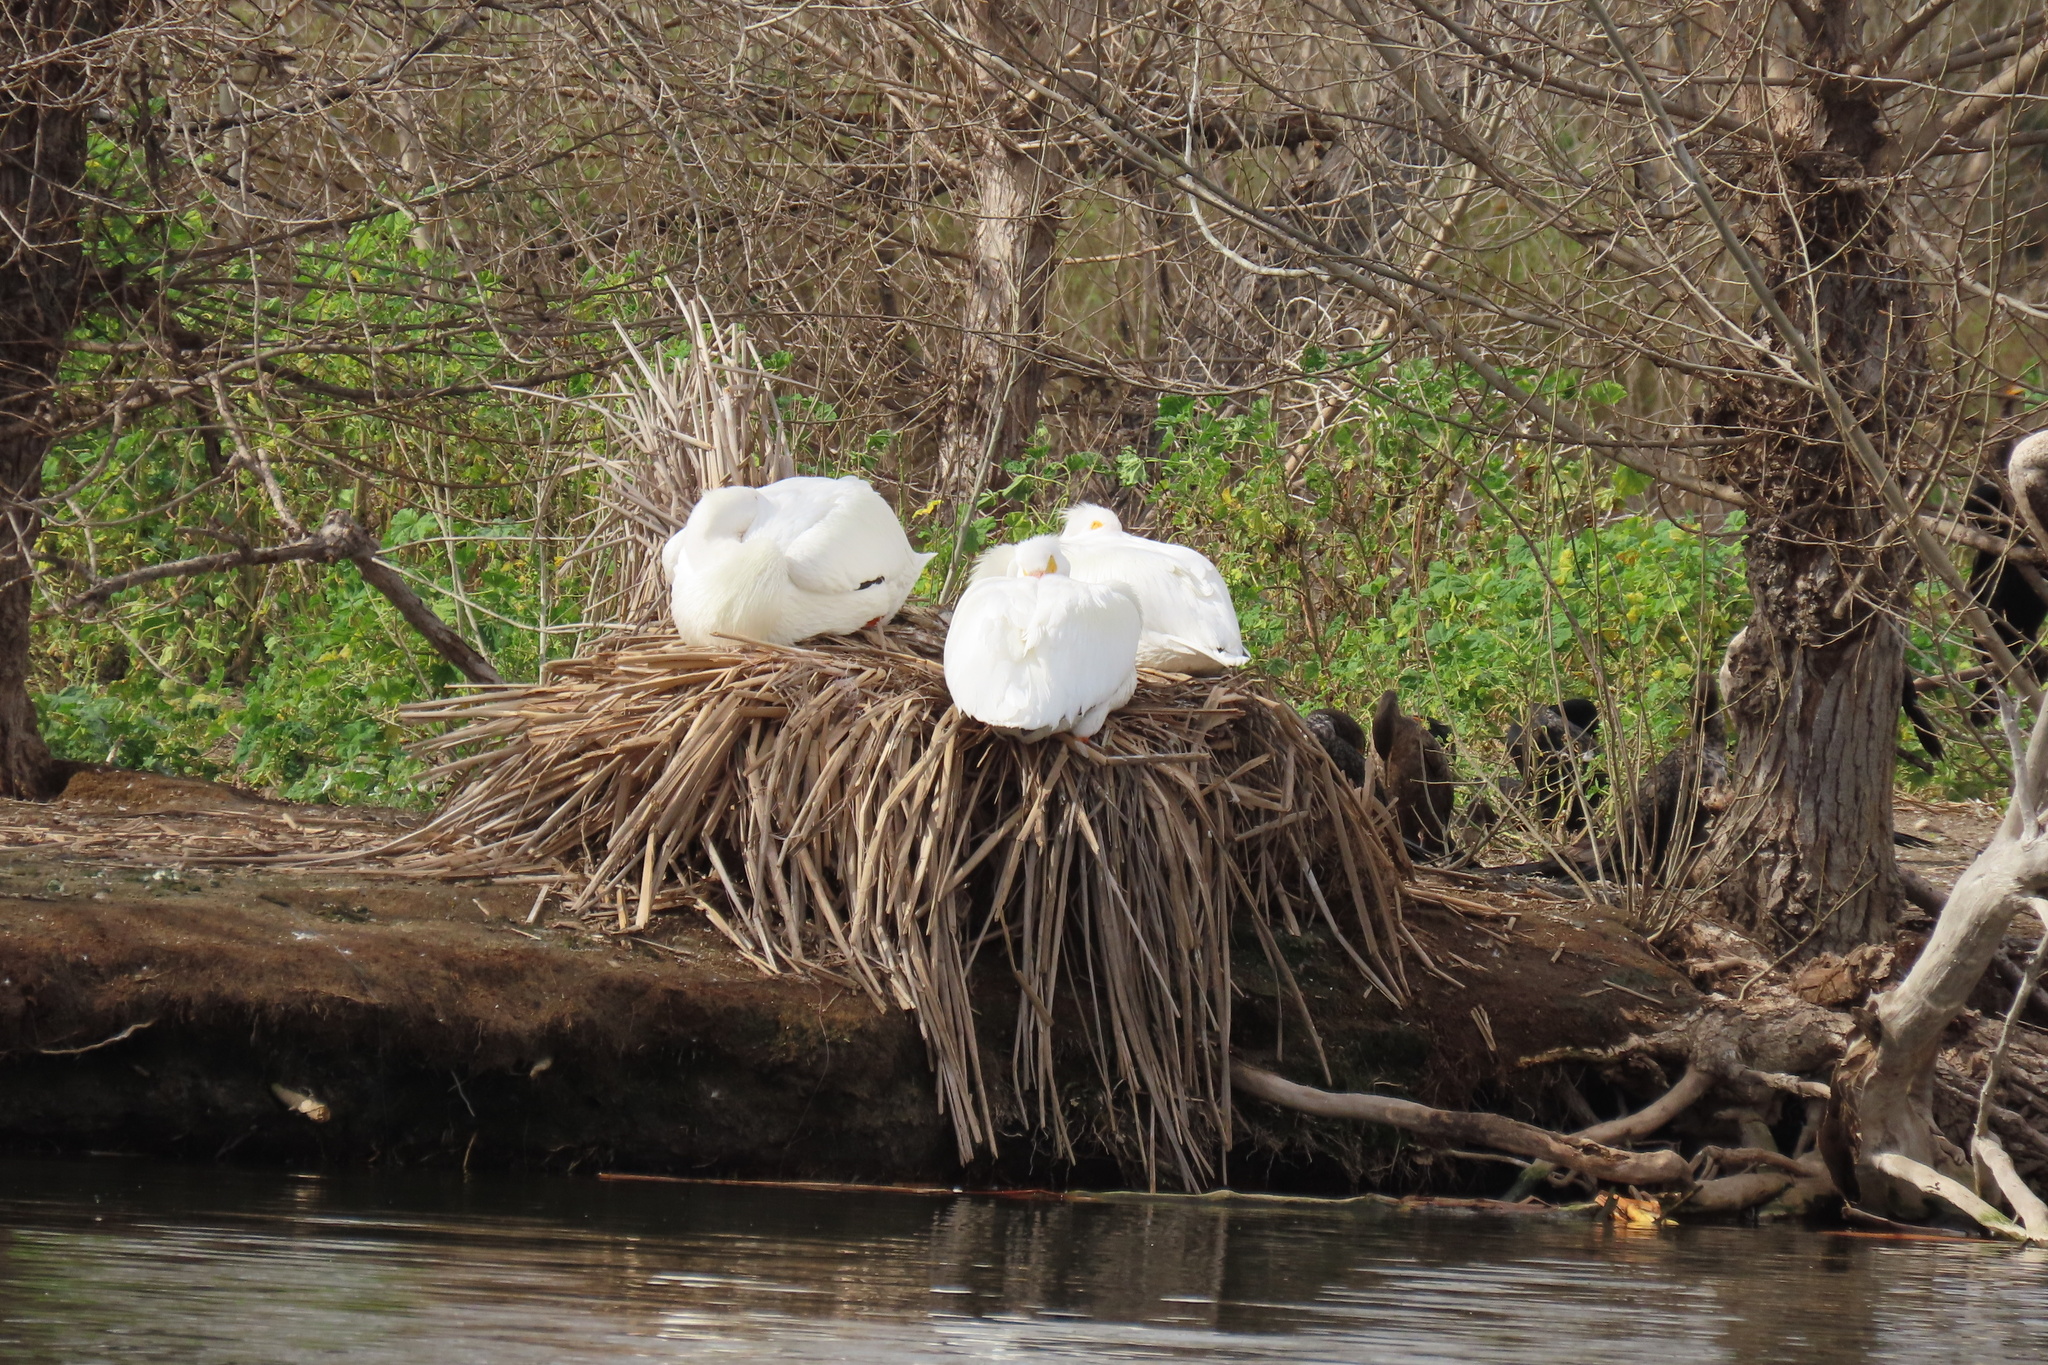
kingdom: Animalia
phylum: Chordata
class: Aves
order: Pelecaniformes
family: Pelecanidae
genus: Pelecanus
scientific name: Pelecanus erythrorhynchos
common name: American white pelican
